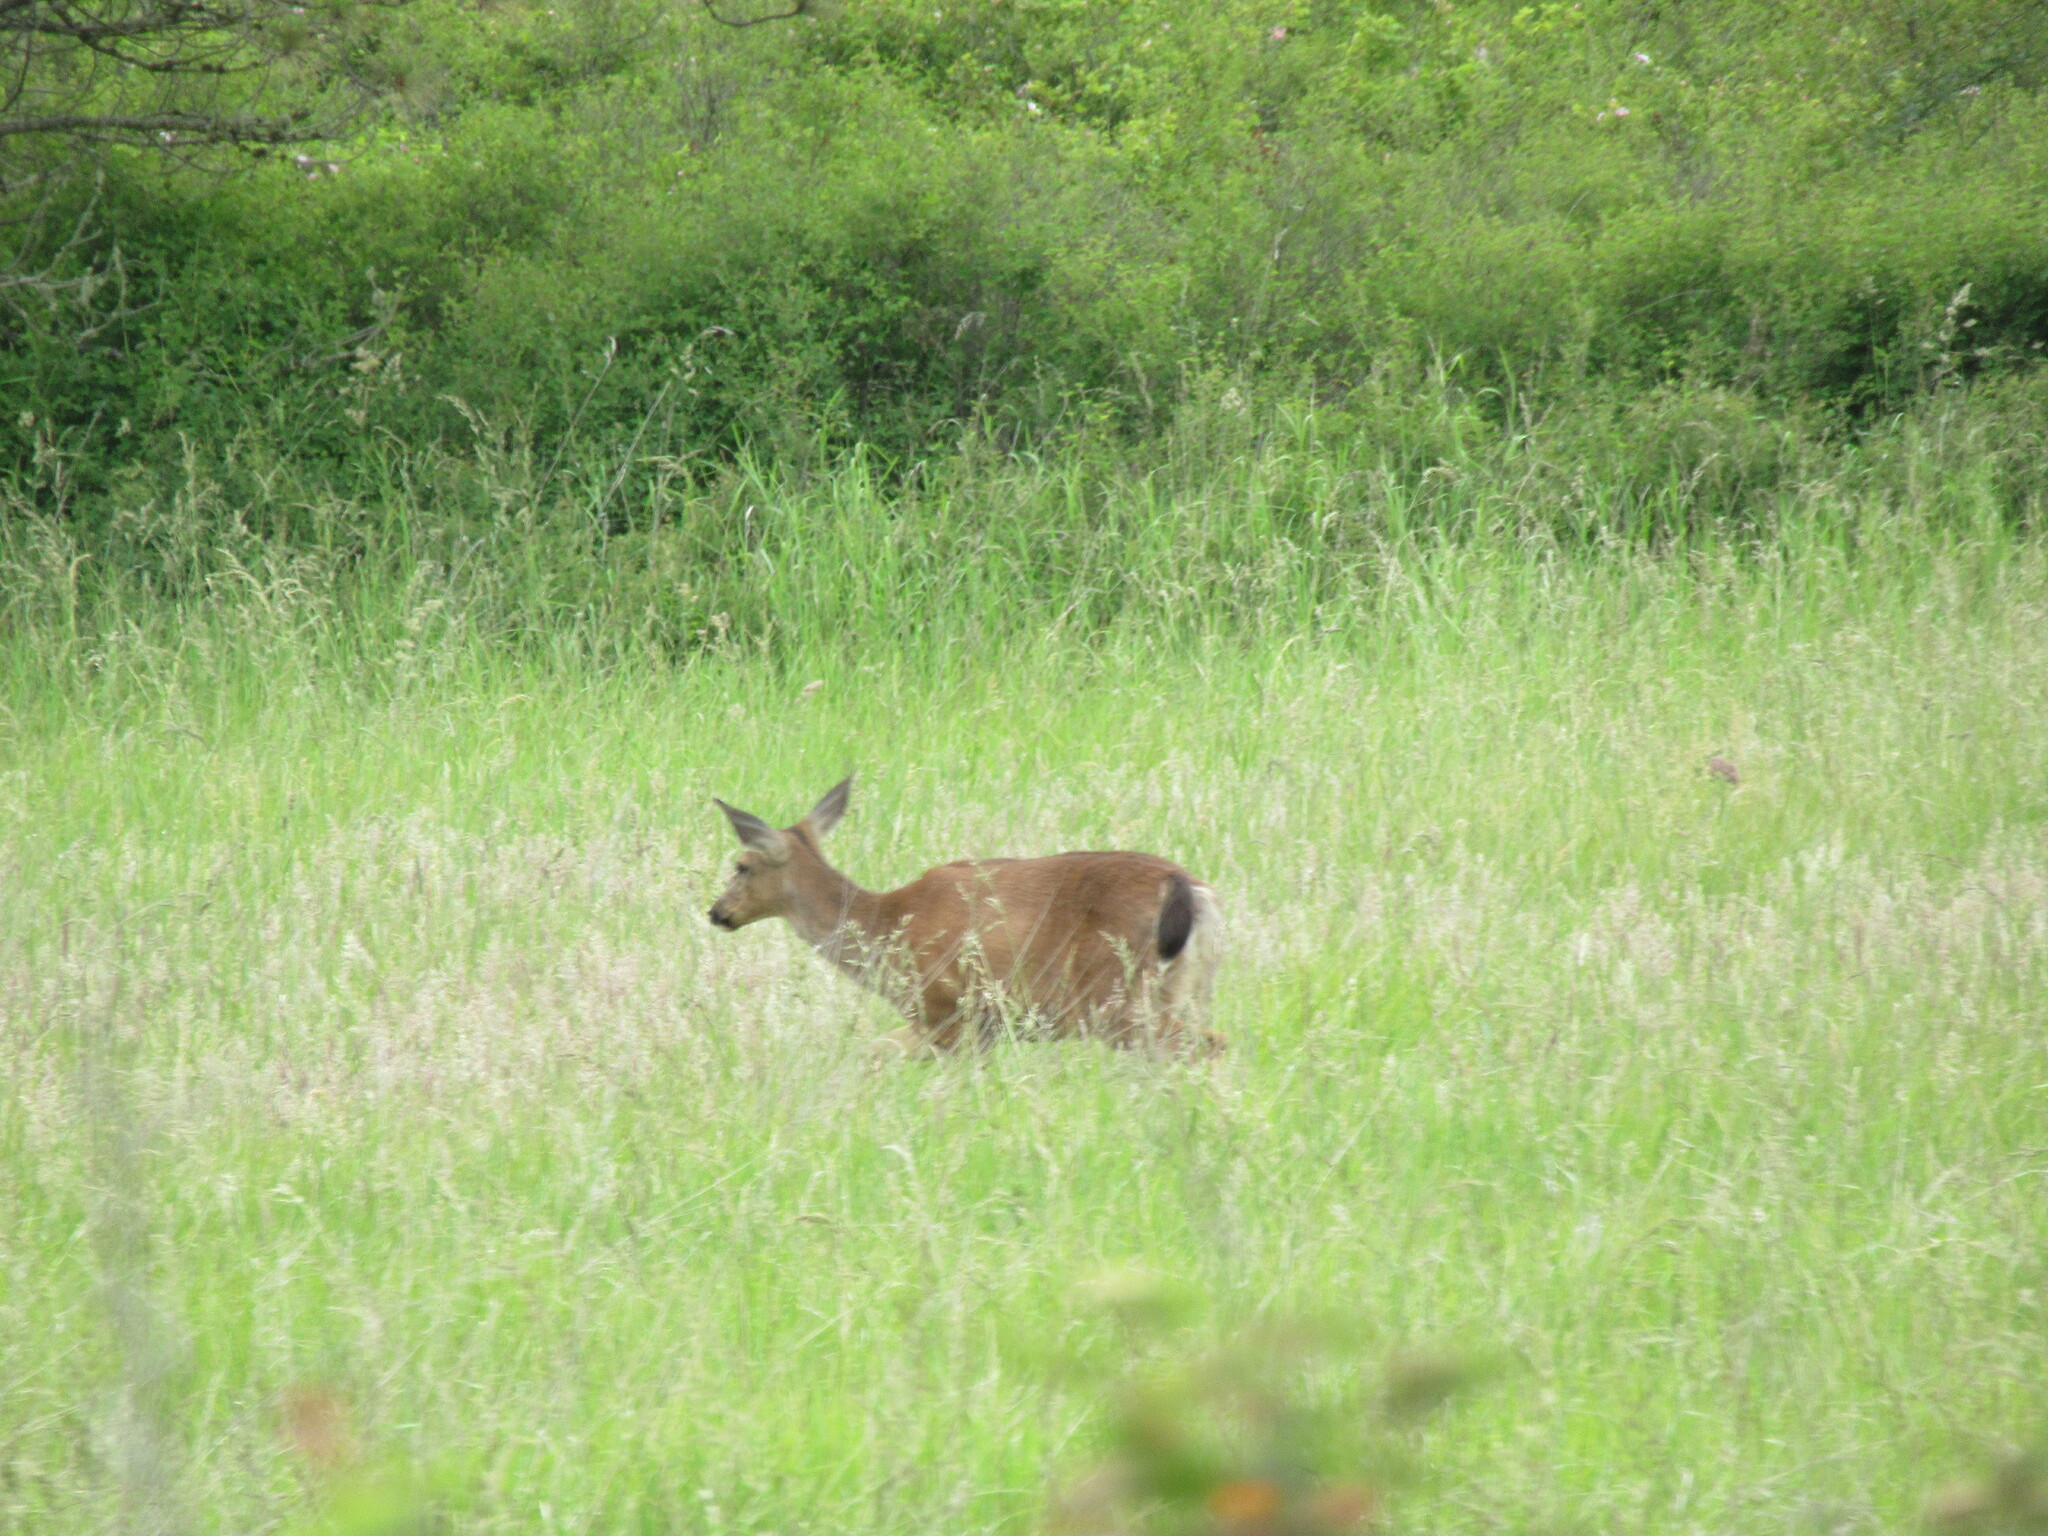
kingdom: Animalia
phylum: Chordata
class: Mammalia
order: Artiodactyla
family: Cervidae
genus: Odocoileus
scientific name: Odocoileus hemionus
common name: Mule deer
